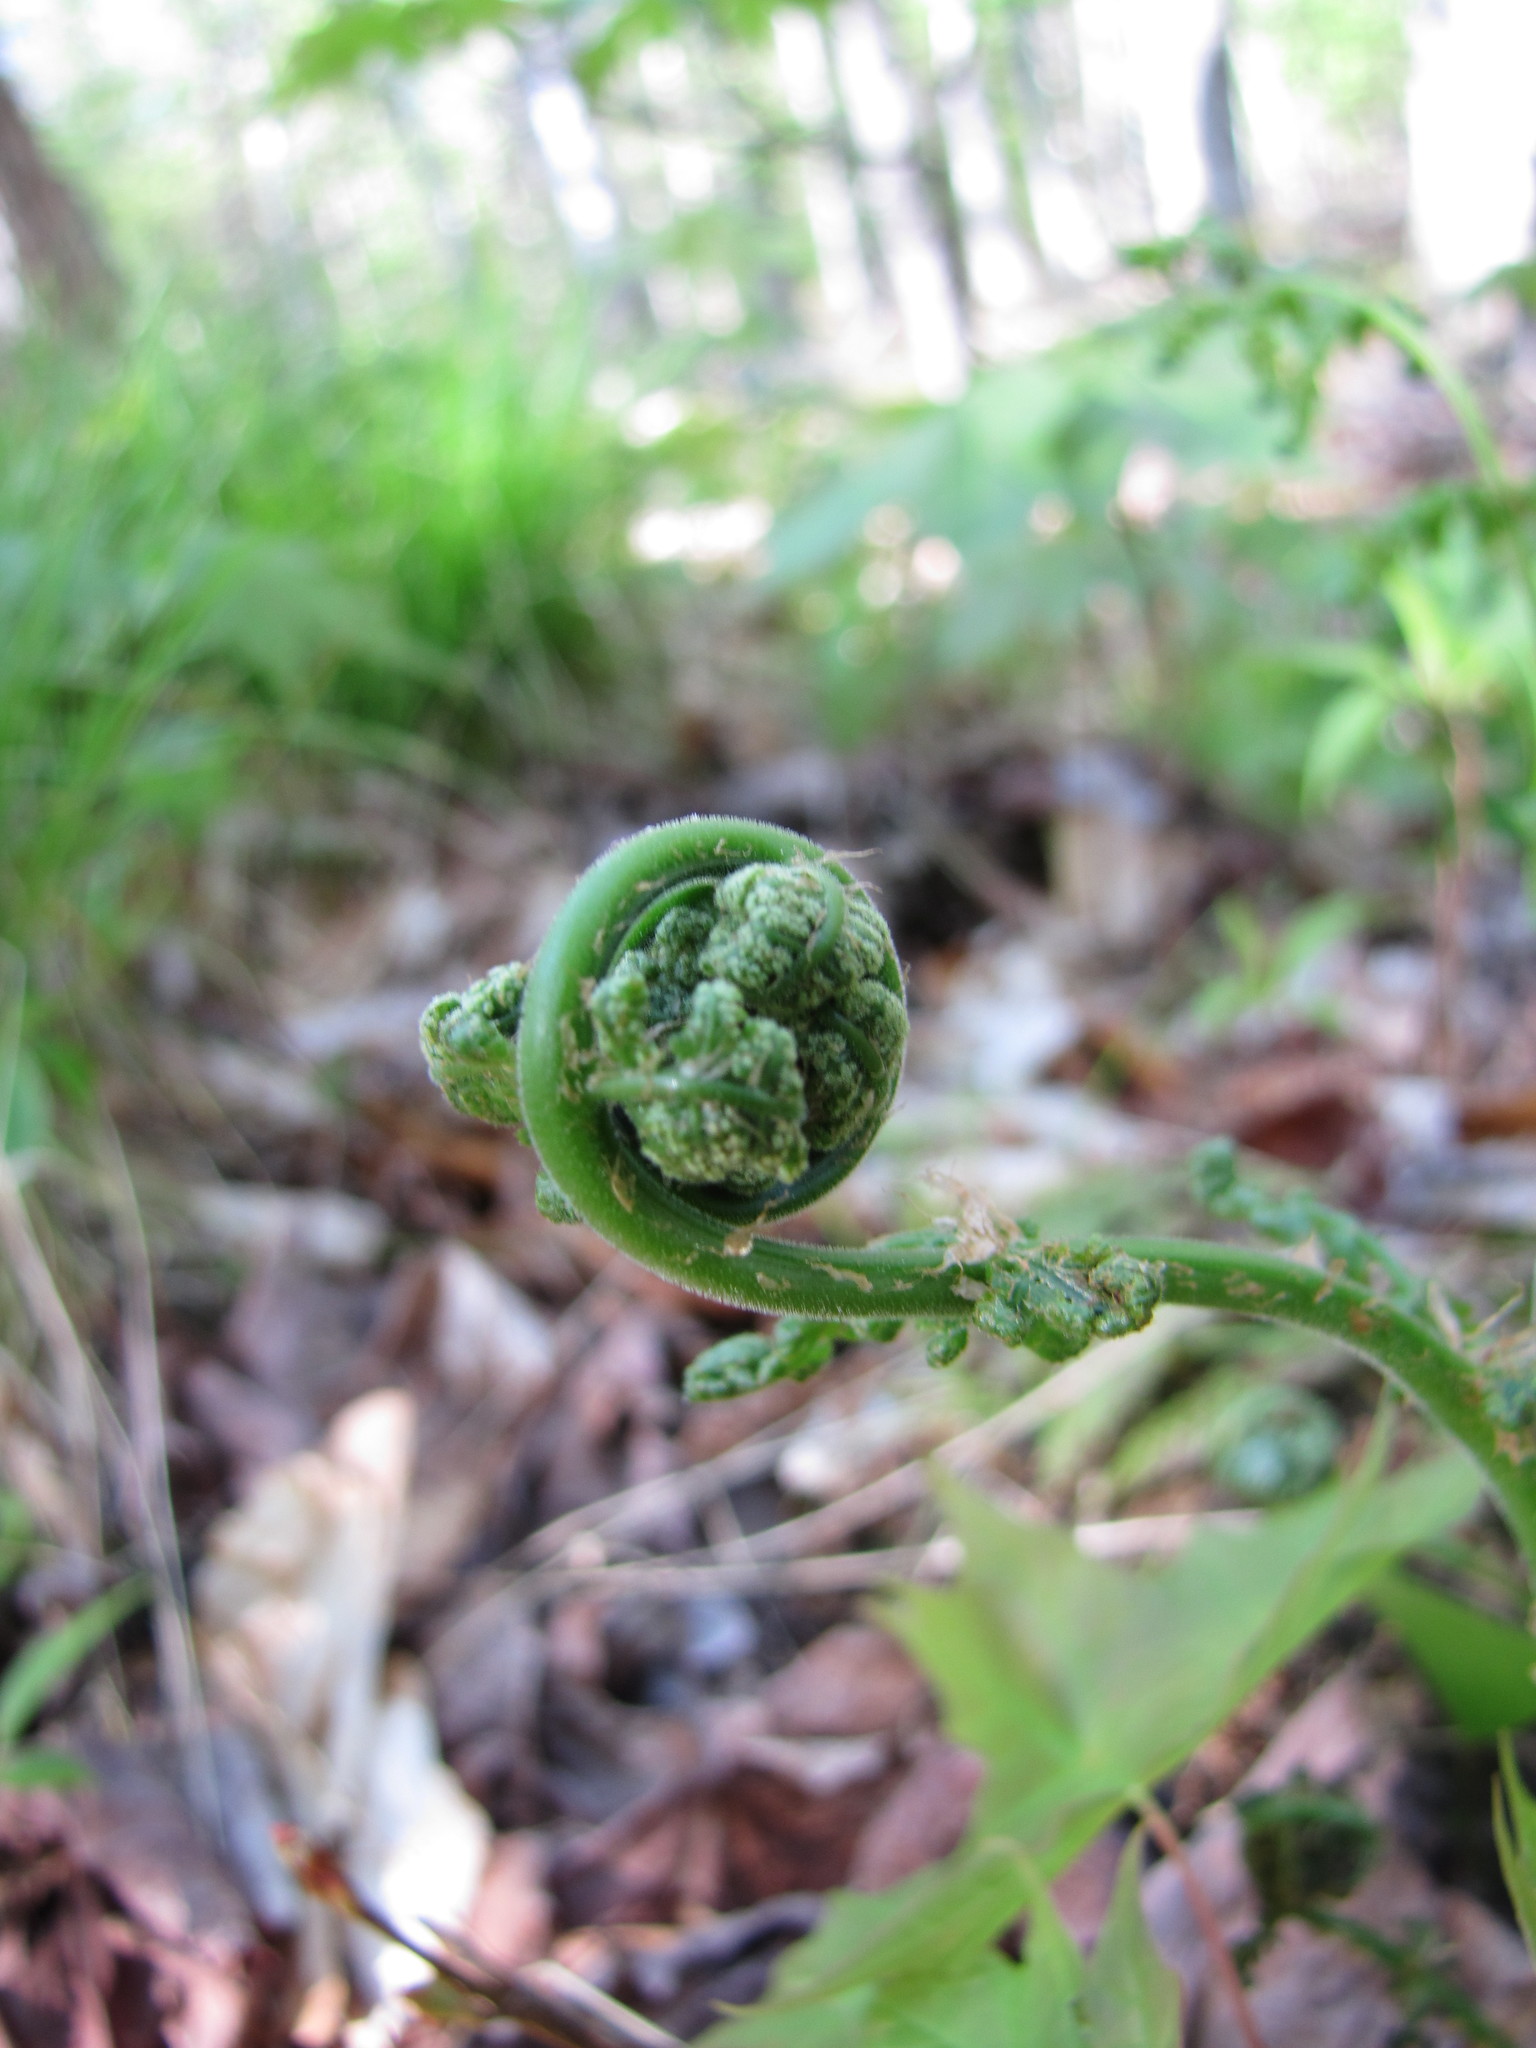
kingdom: Plantae
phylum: Tracheophyta
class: Polypodiopsida
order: Polypodiales
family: Dryopteridaceae
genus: Dryopteris
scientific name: Dryopteris intermedia
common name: Evergreen wood fern
